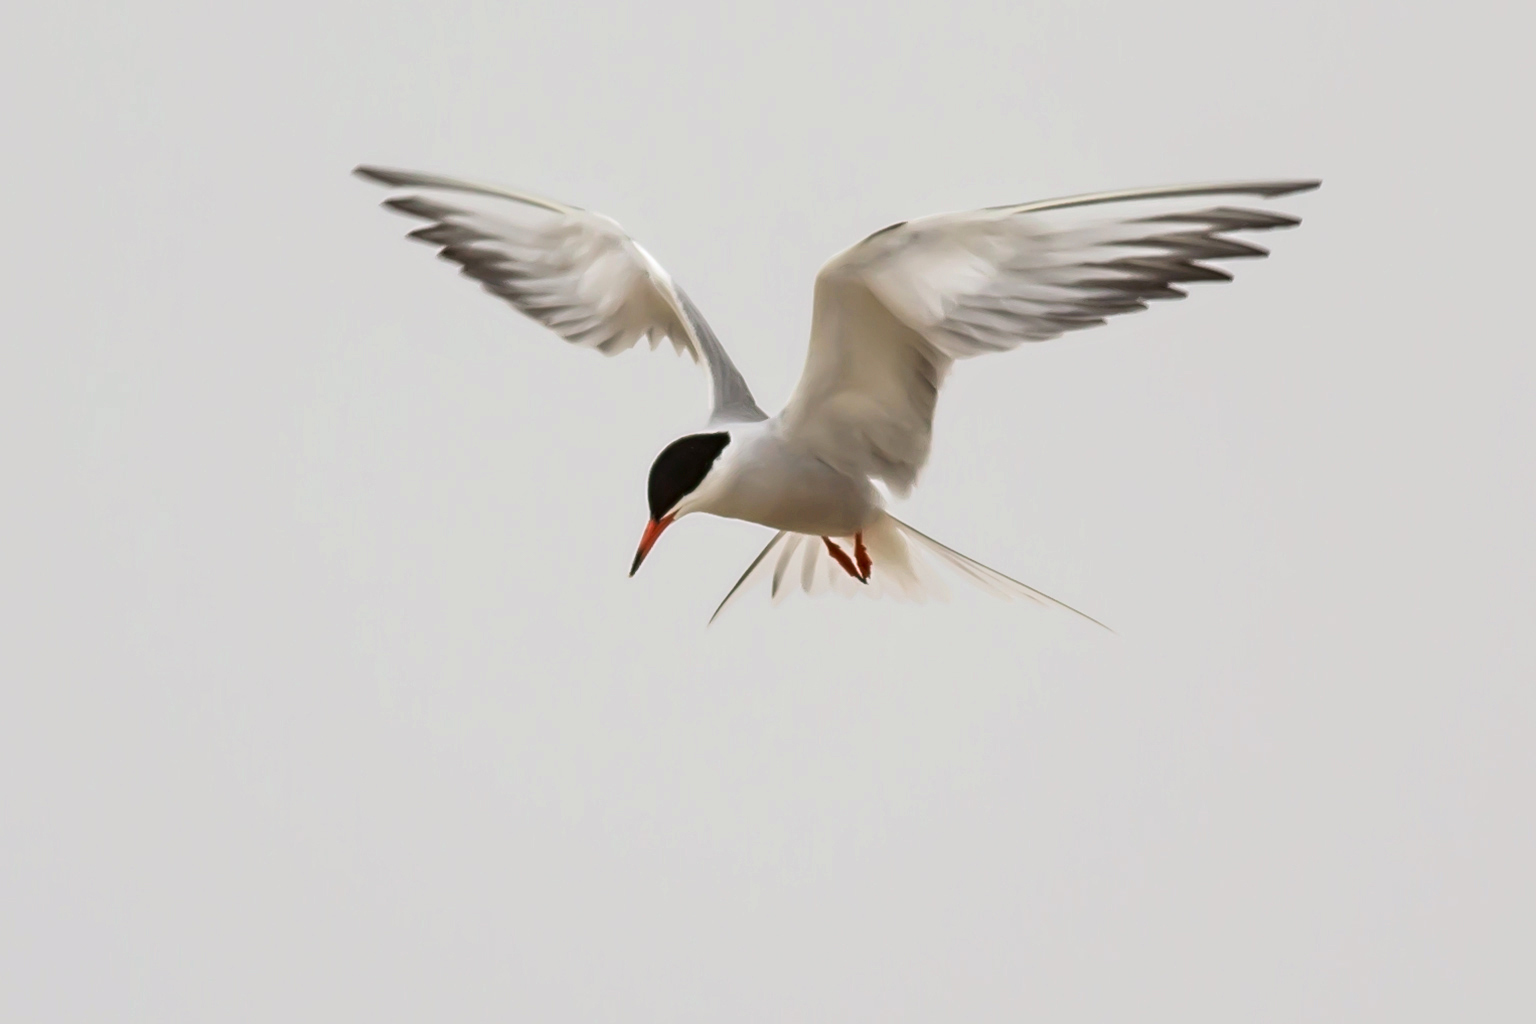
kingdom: Animalia
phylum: Chordata
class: Aves
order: Charadriiformes
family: Laridae
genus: Sterna
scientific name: Sterna hirundo
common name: Common tern
